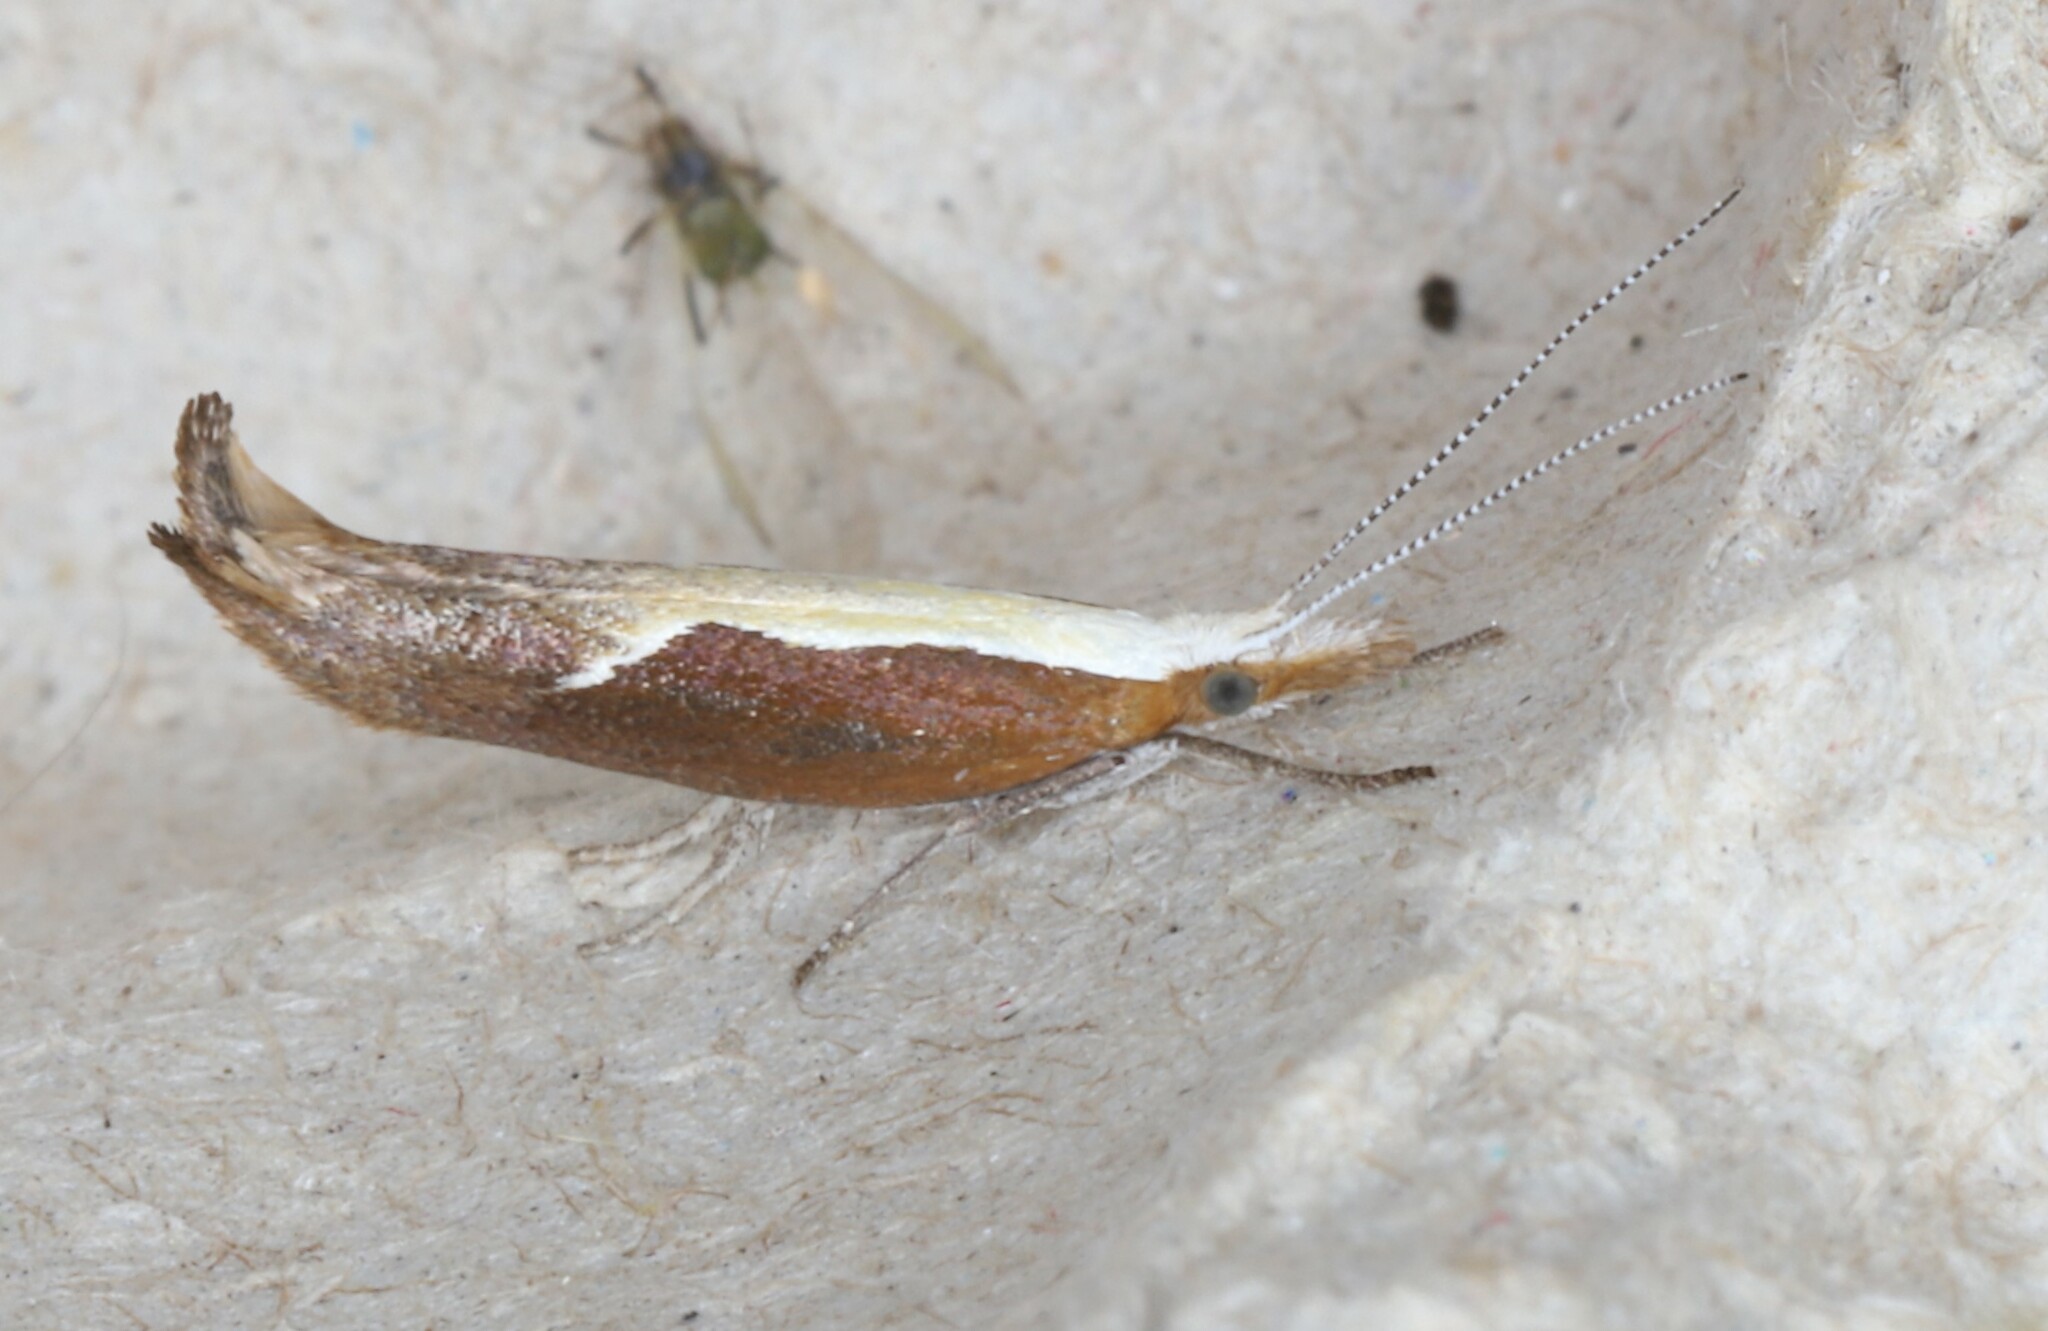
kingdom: Animalia
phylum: Arthropoda
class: Insecta
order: Lepidoptera
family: Ypsolophidae
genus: Ypsolopha
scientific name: Ypsolopha dentella
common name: Honeysuckle moth
